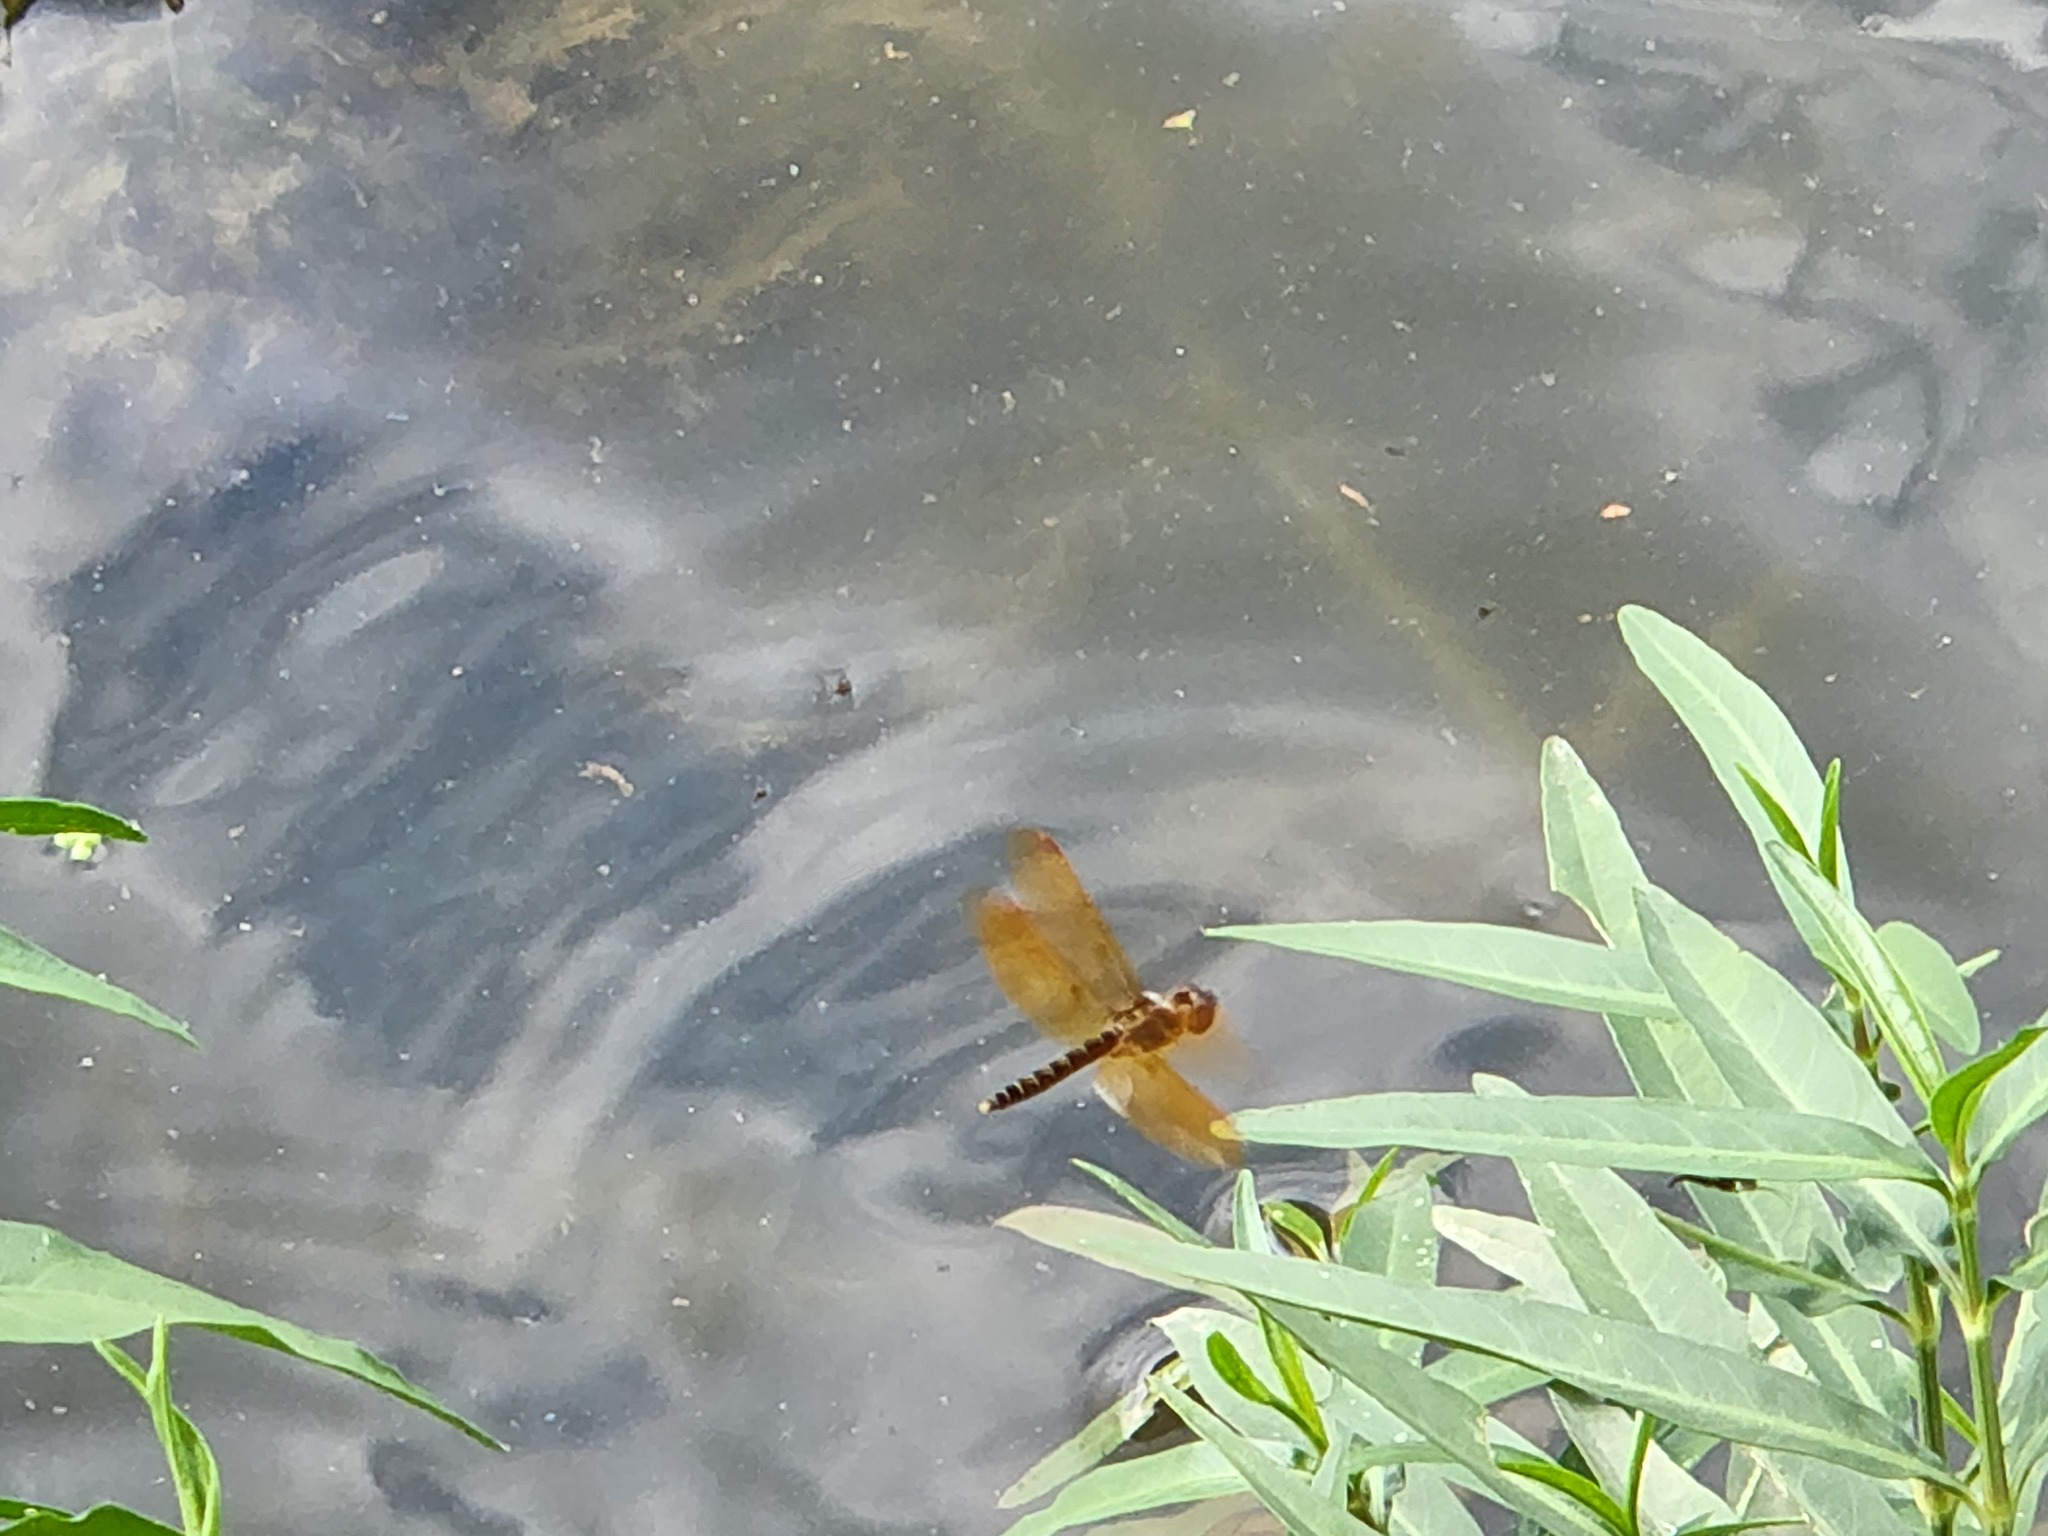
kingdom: Animalia
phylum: Arthropoda
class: Insecta
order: Odonata
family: Libellulidae
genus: Perithemis
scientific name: Perithemis tenera
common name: Eastern amberwing
